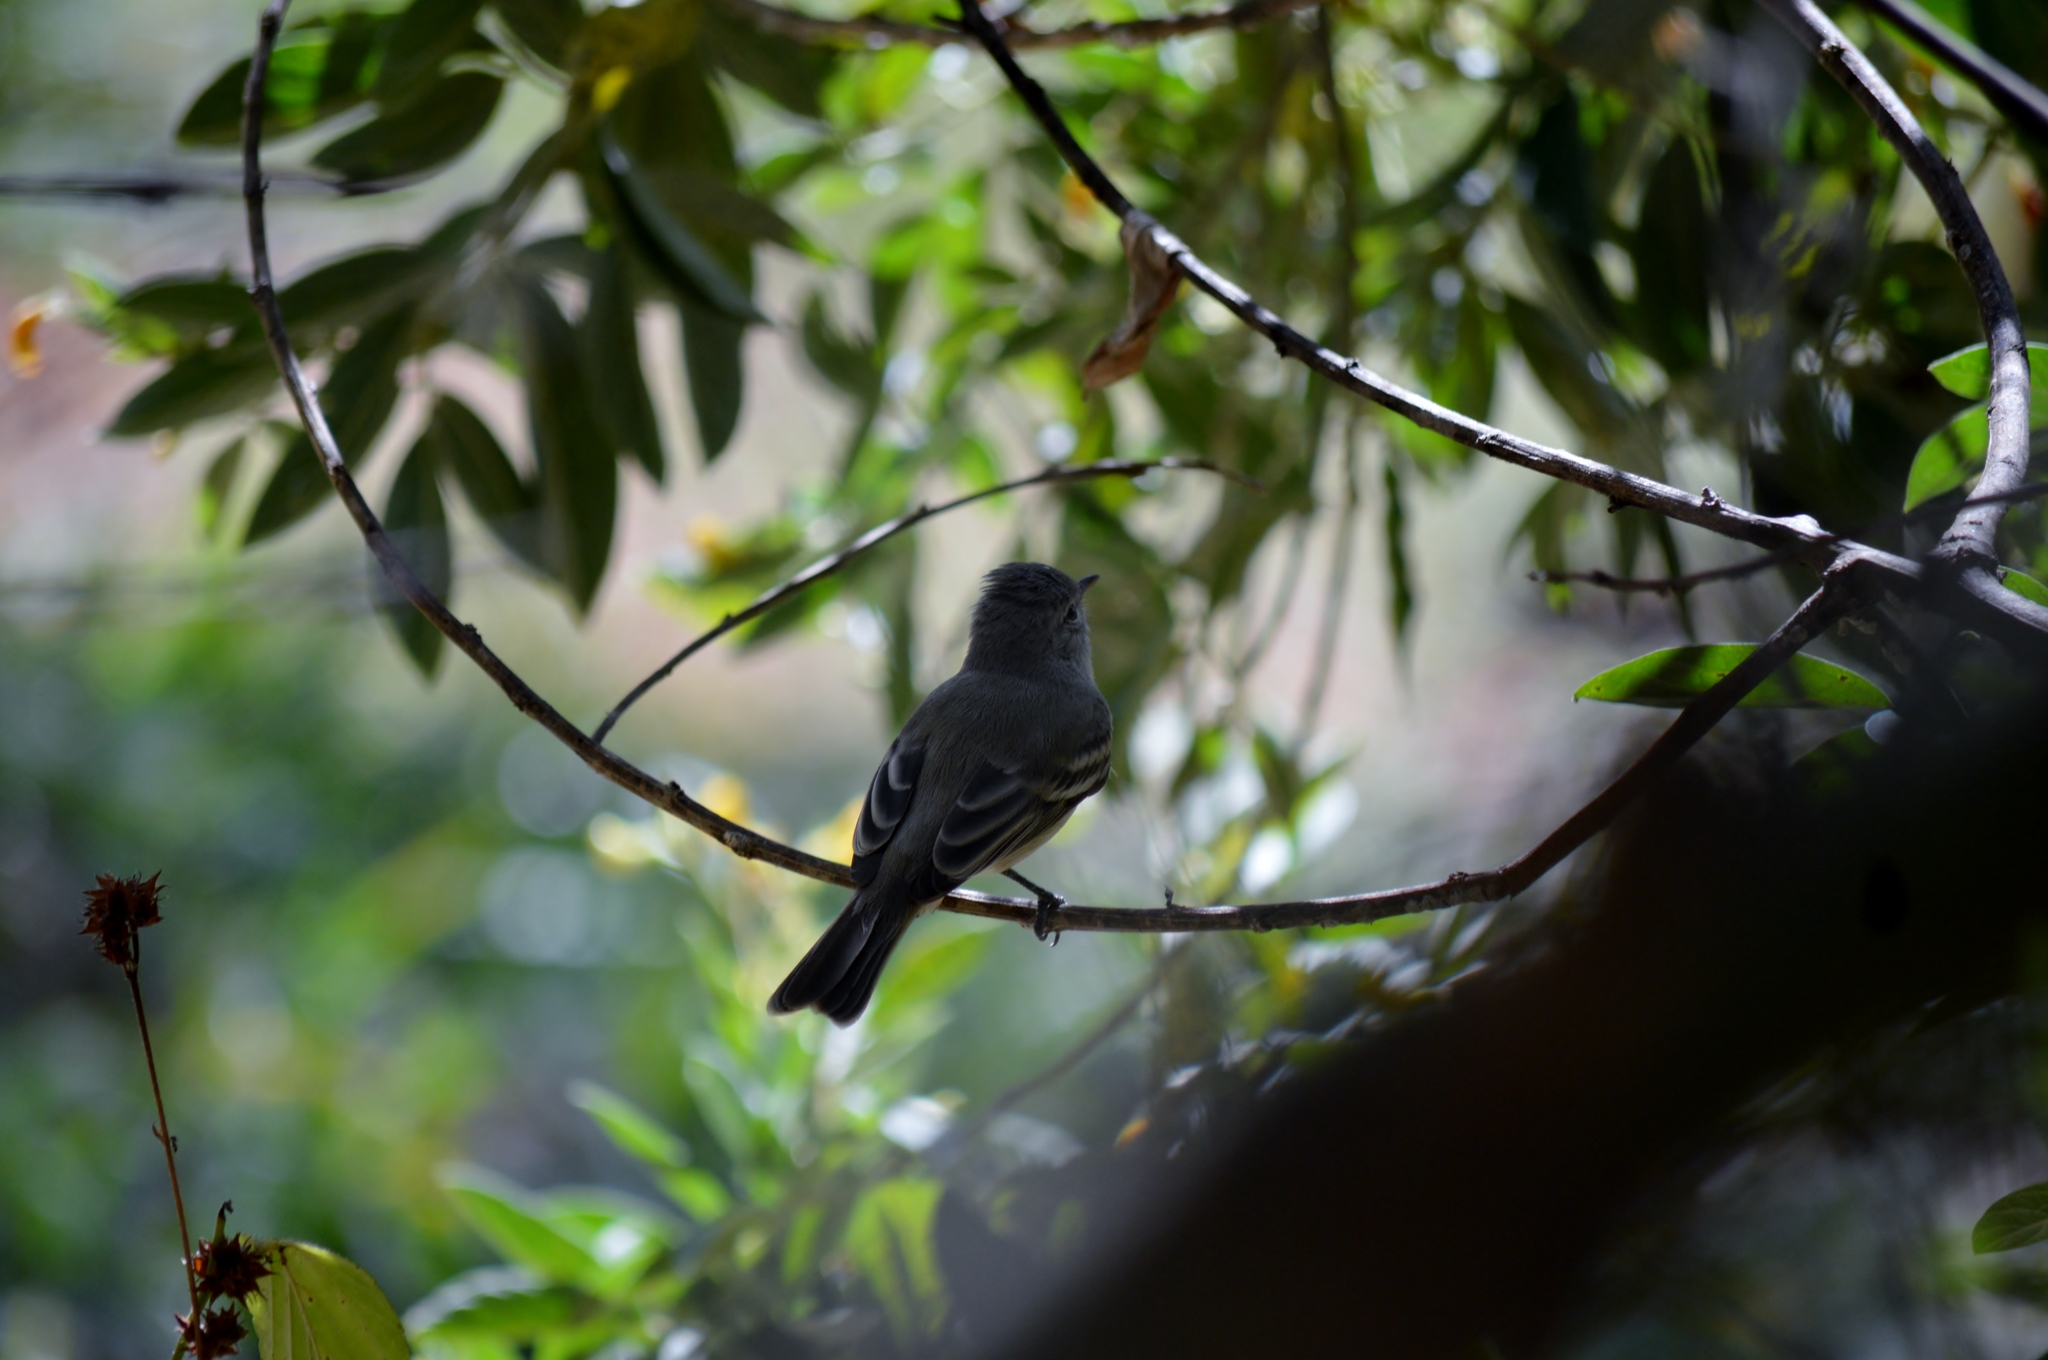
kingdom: Animalia
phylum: Chordata
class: Aves
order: Passeriformes
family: Tyrannidae
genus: Camptostoma
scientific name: Camptostoma obsoletum
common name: Southern beardless-tyrannulet
